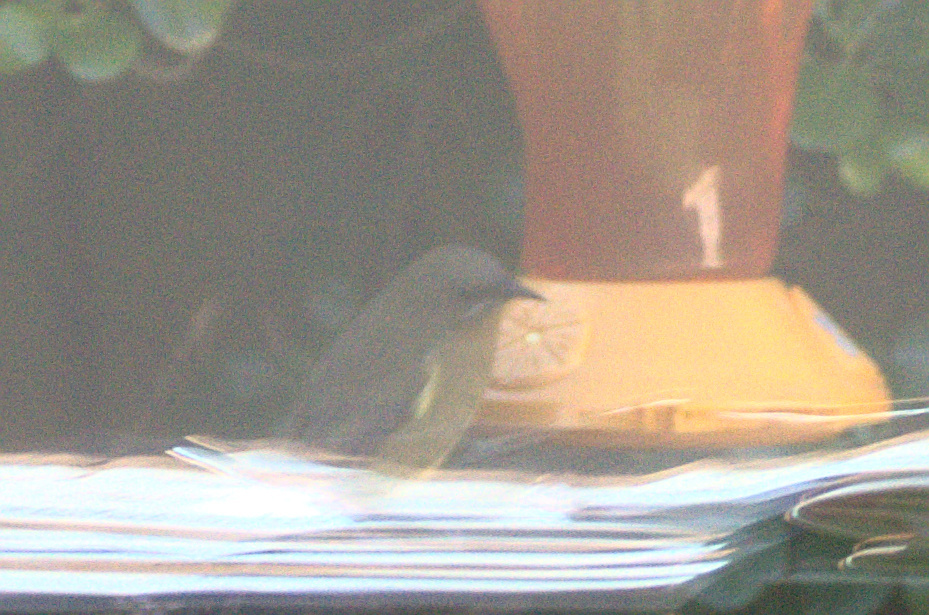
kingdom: Animalia
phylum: Chordata
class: Aves
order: Passeriformes
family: Meliphagidae
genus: Anthornis
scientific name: Anthornis melanura
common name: New zealand bellbird
